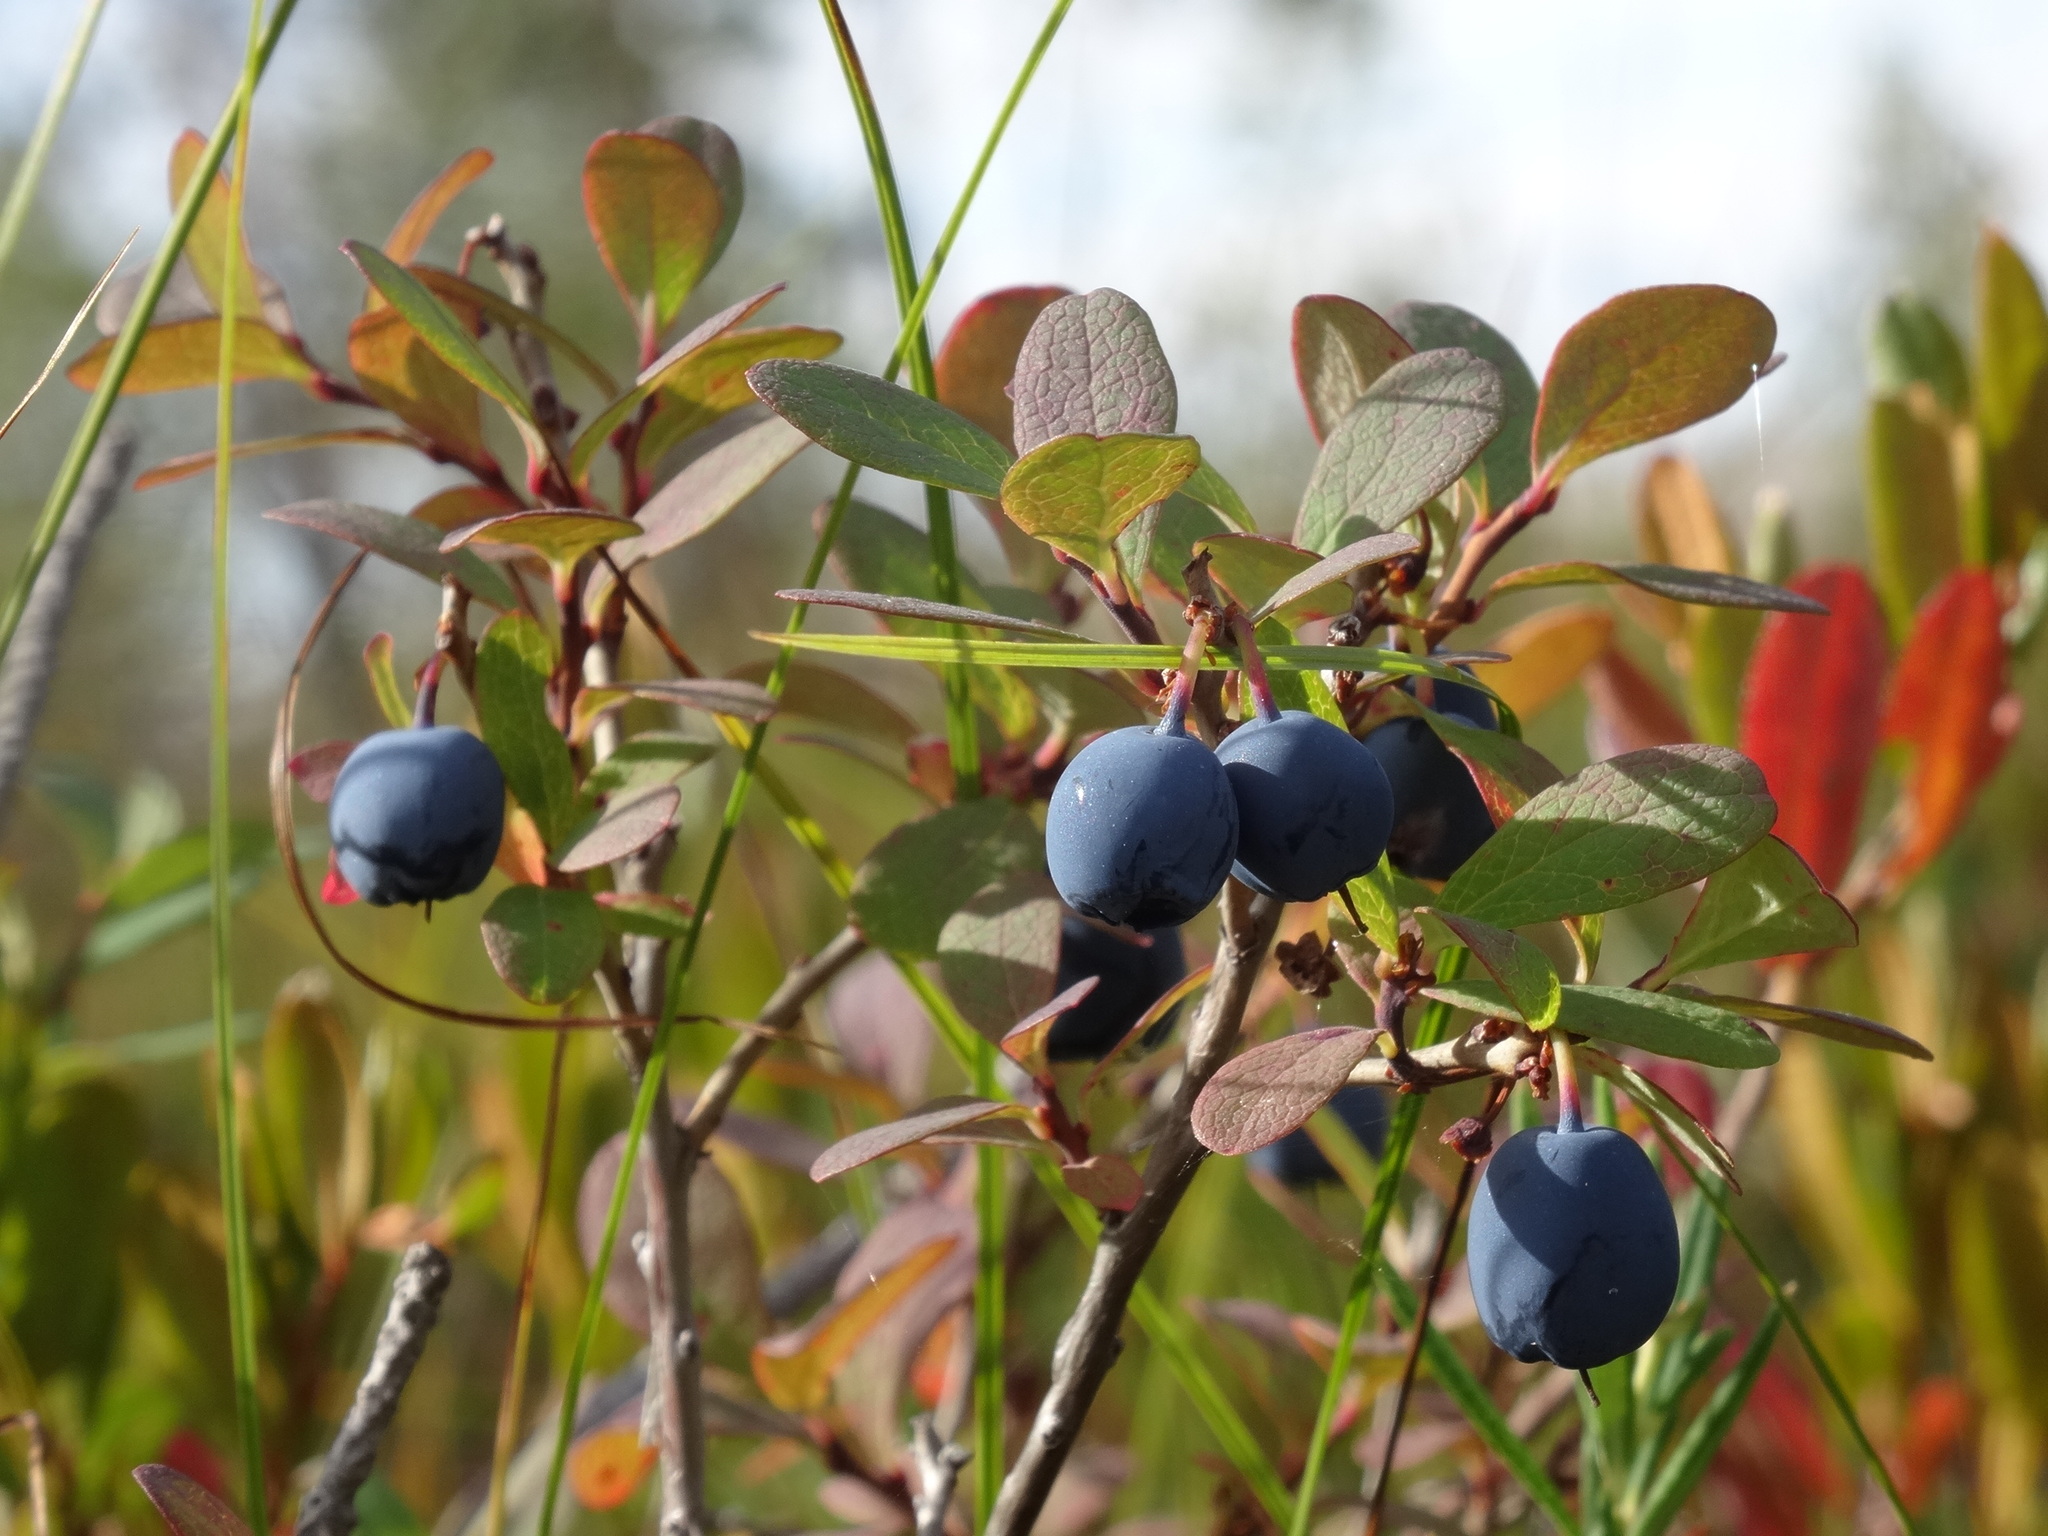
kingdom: Plantae
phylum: Tracheophyta
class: Magnoliopsida
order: Ericales
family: Ericaceae
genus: Vaccinium
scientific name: Vaccinium uliginosum
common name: Bog bilberry
